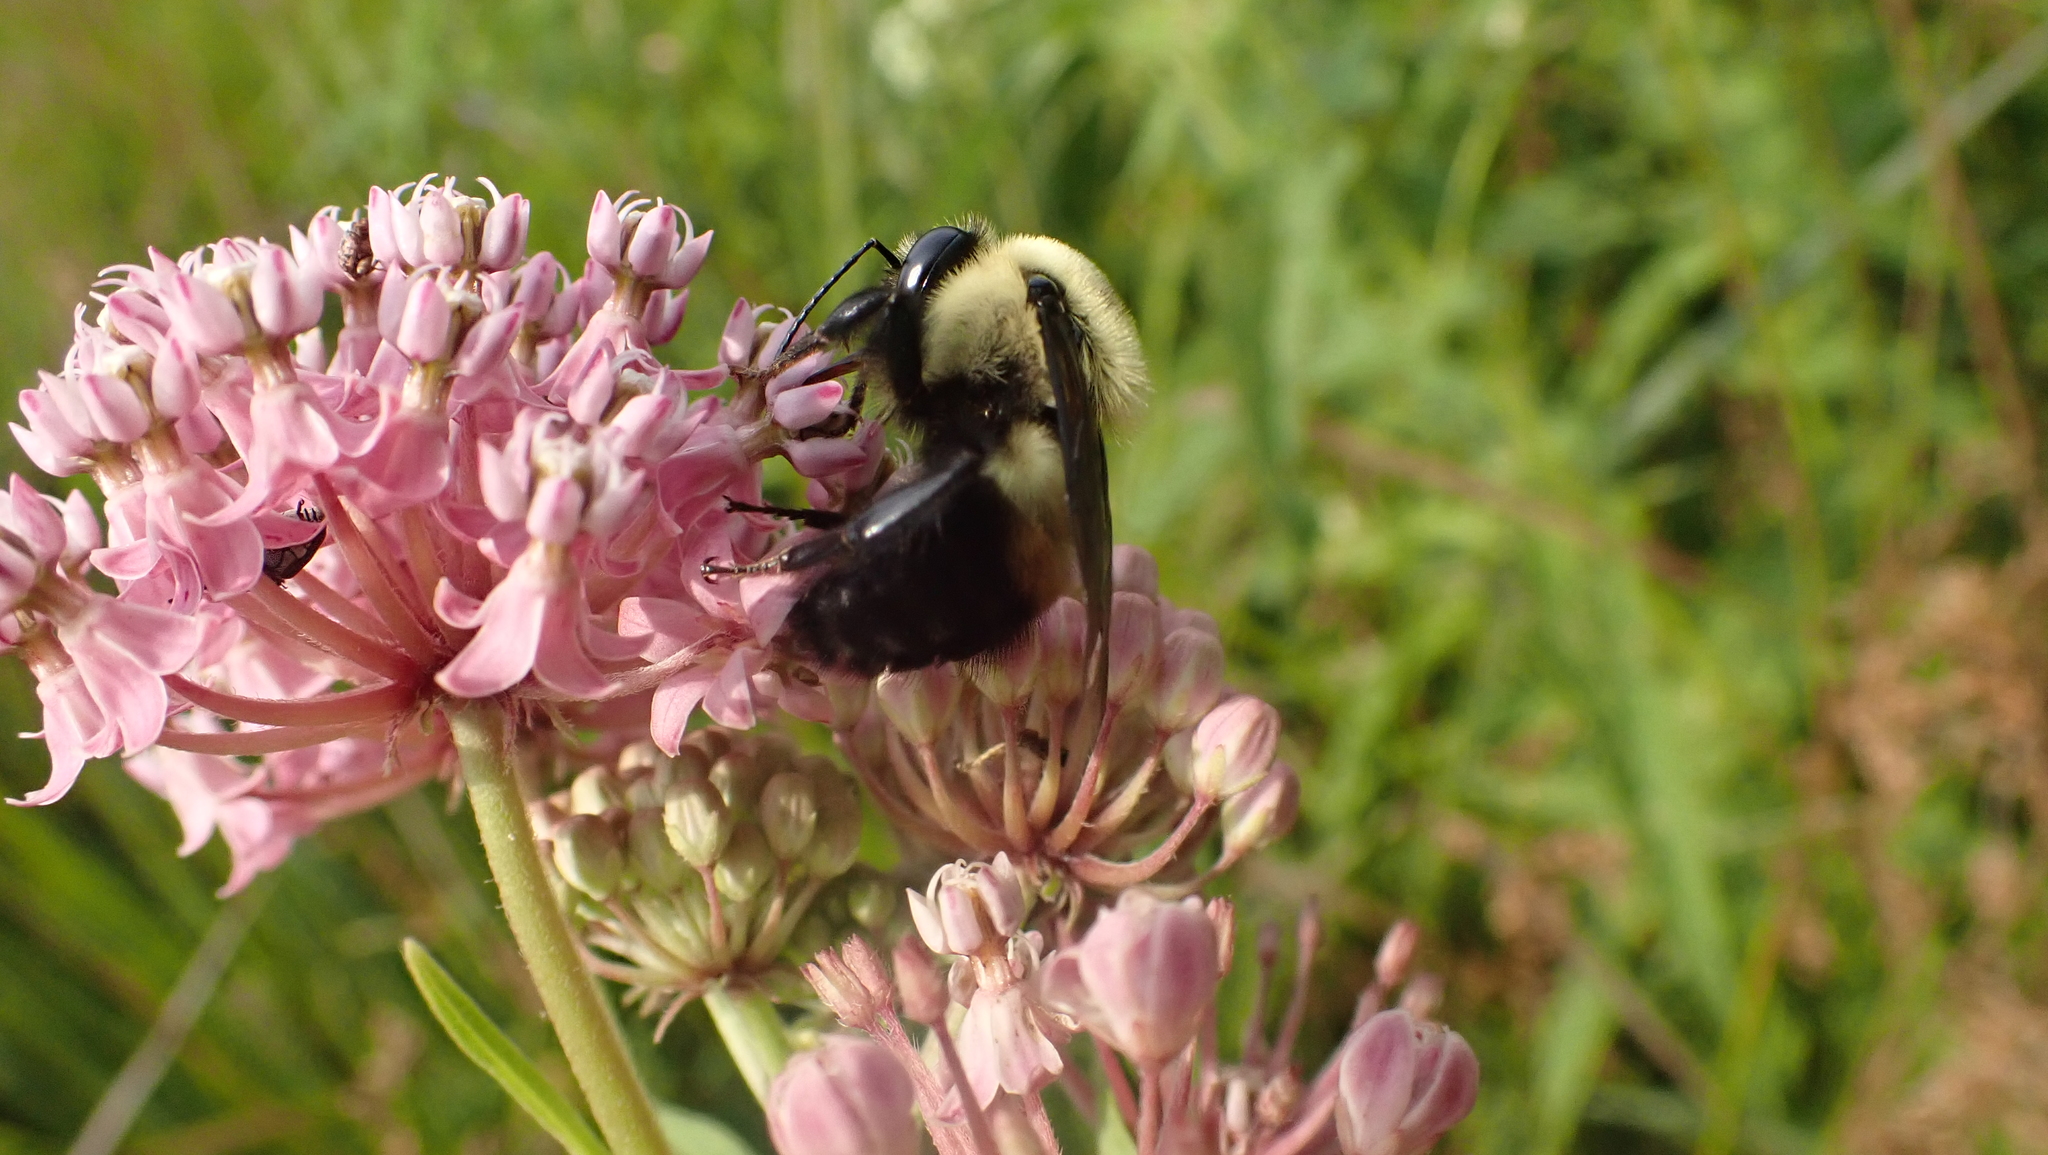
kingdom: Animalia
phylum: Arthropoda
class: Insecta
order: Hymenoptera
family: Apidae
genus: Bombus
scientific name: Bombus griseocollis
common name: Brown-belted bumble bee
